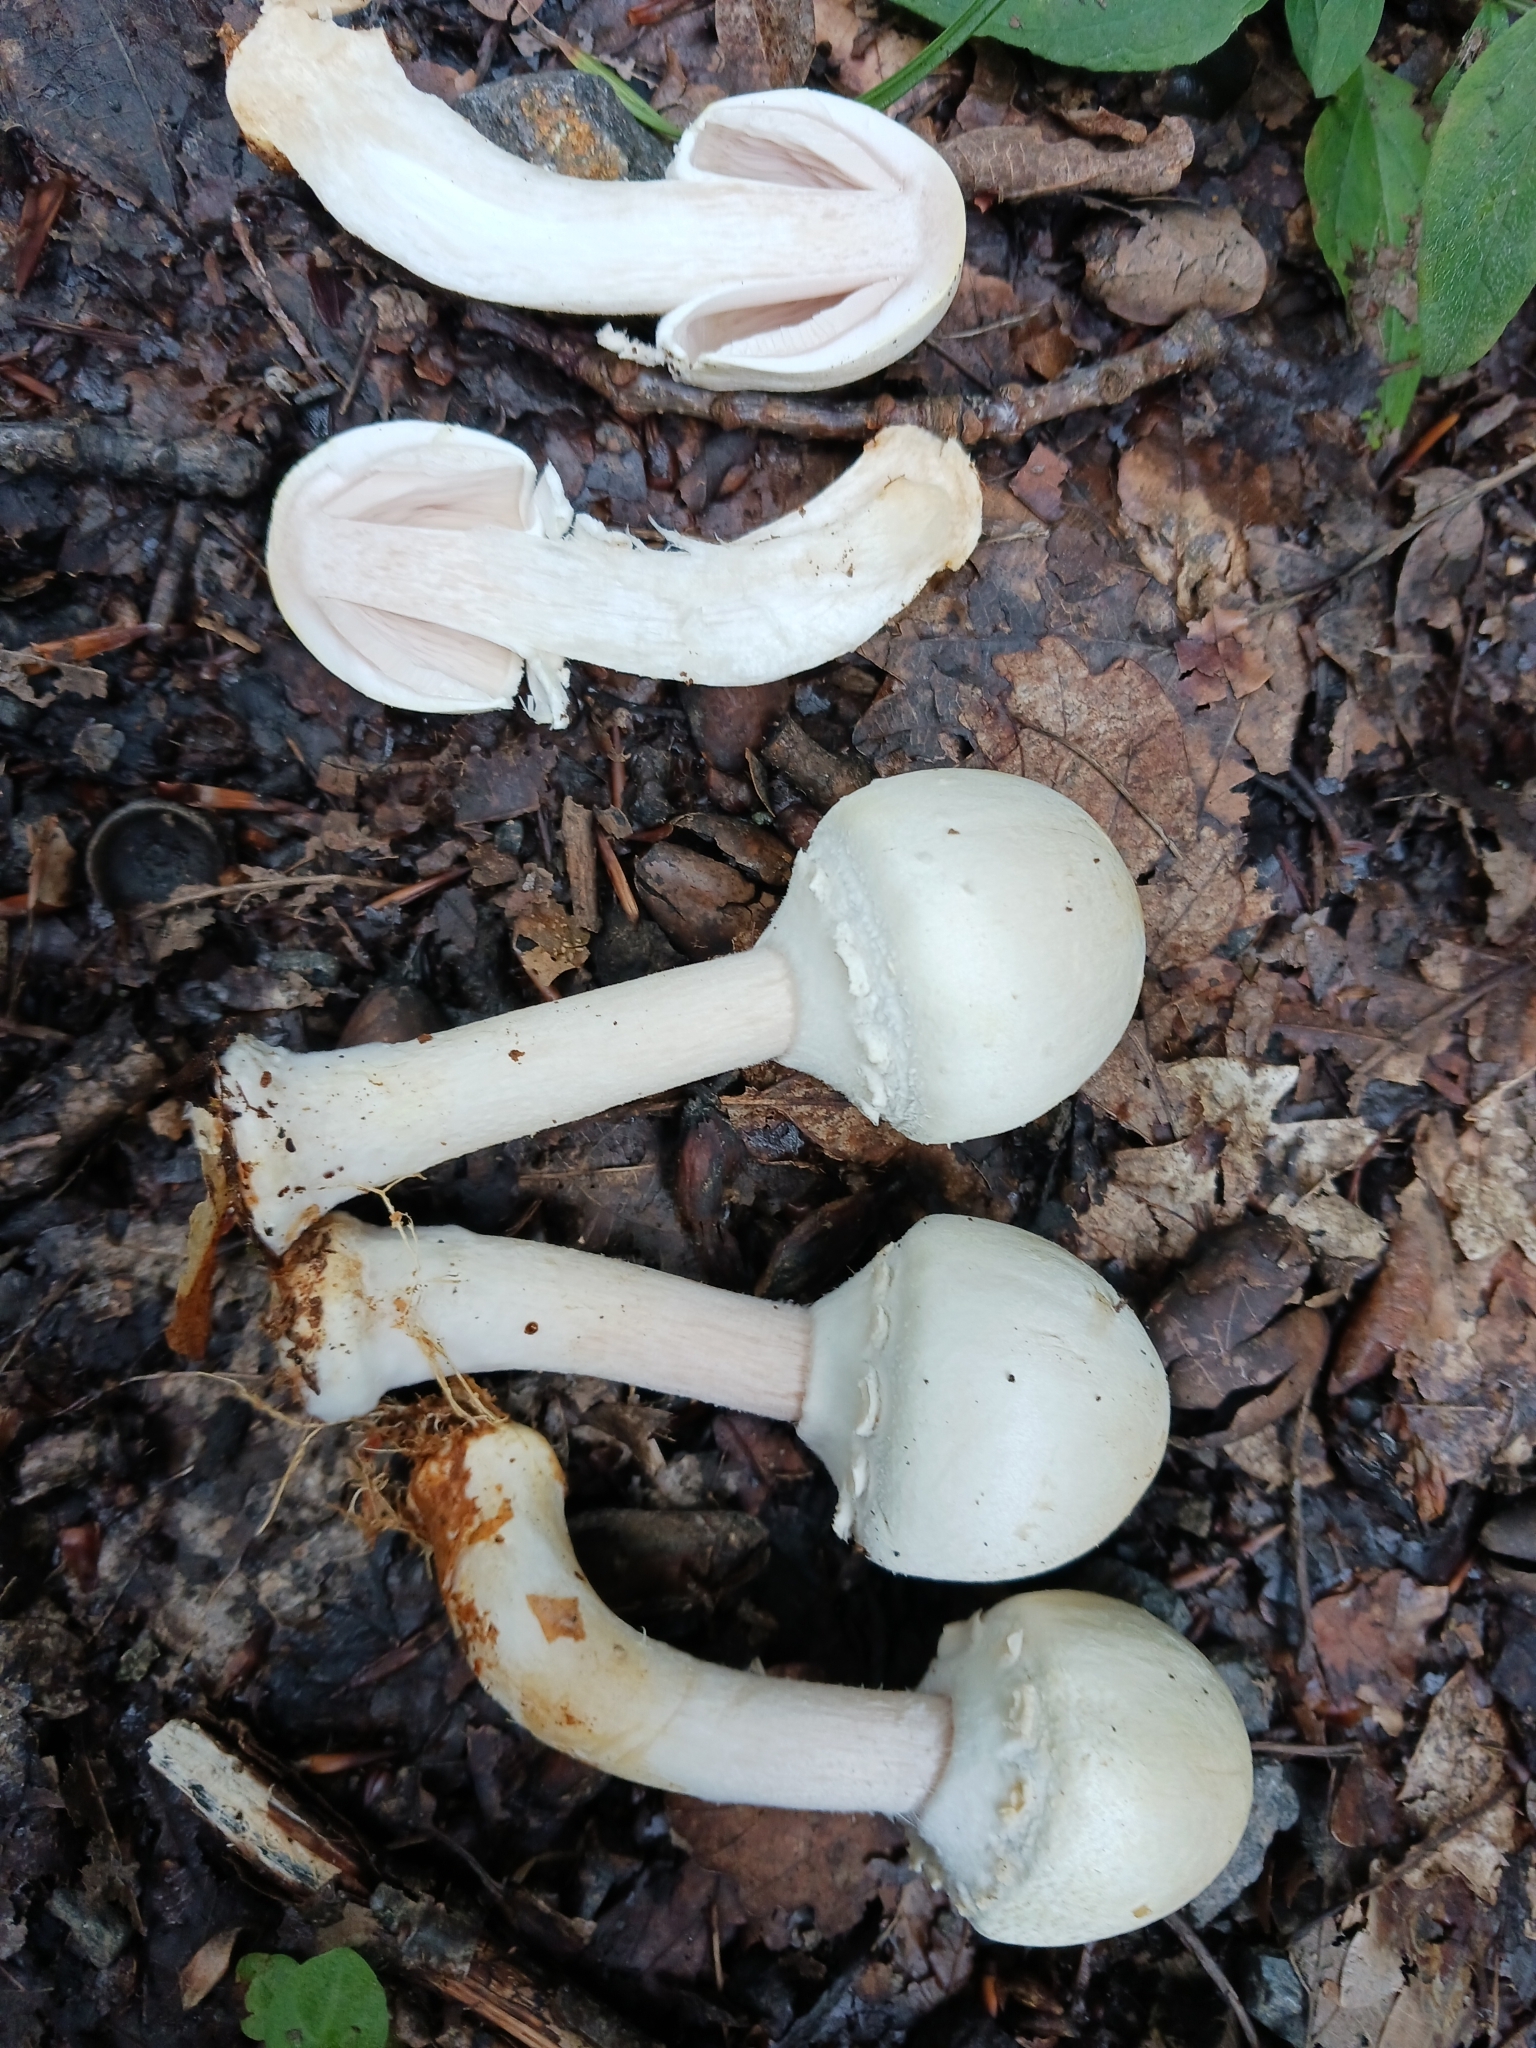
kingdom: Fungi
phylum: Basidiomycota
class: Agaricomycetes
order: Agaricales
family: Agaricaceae
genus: Agaricus
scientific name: Agaricus sylvicola
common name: Wood mushroom
